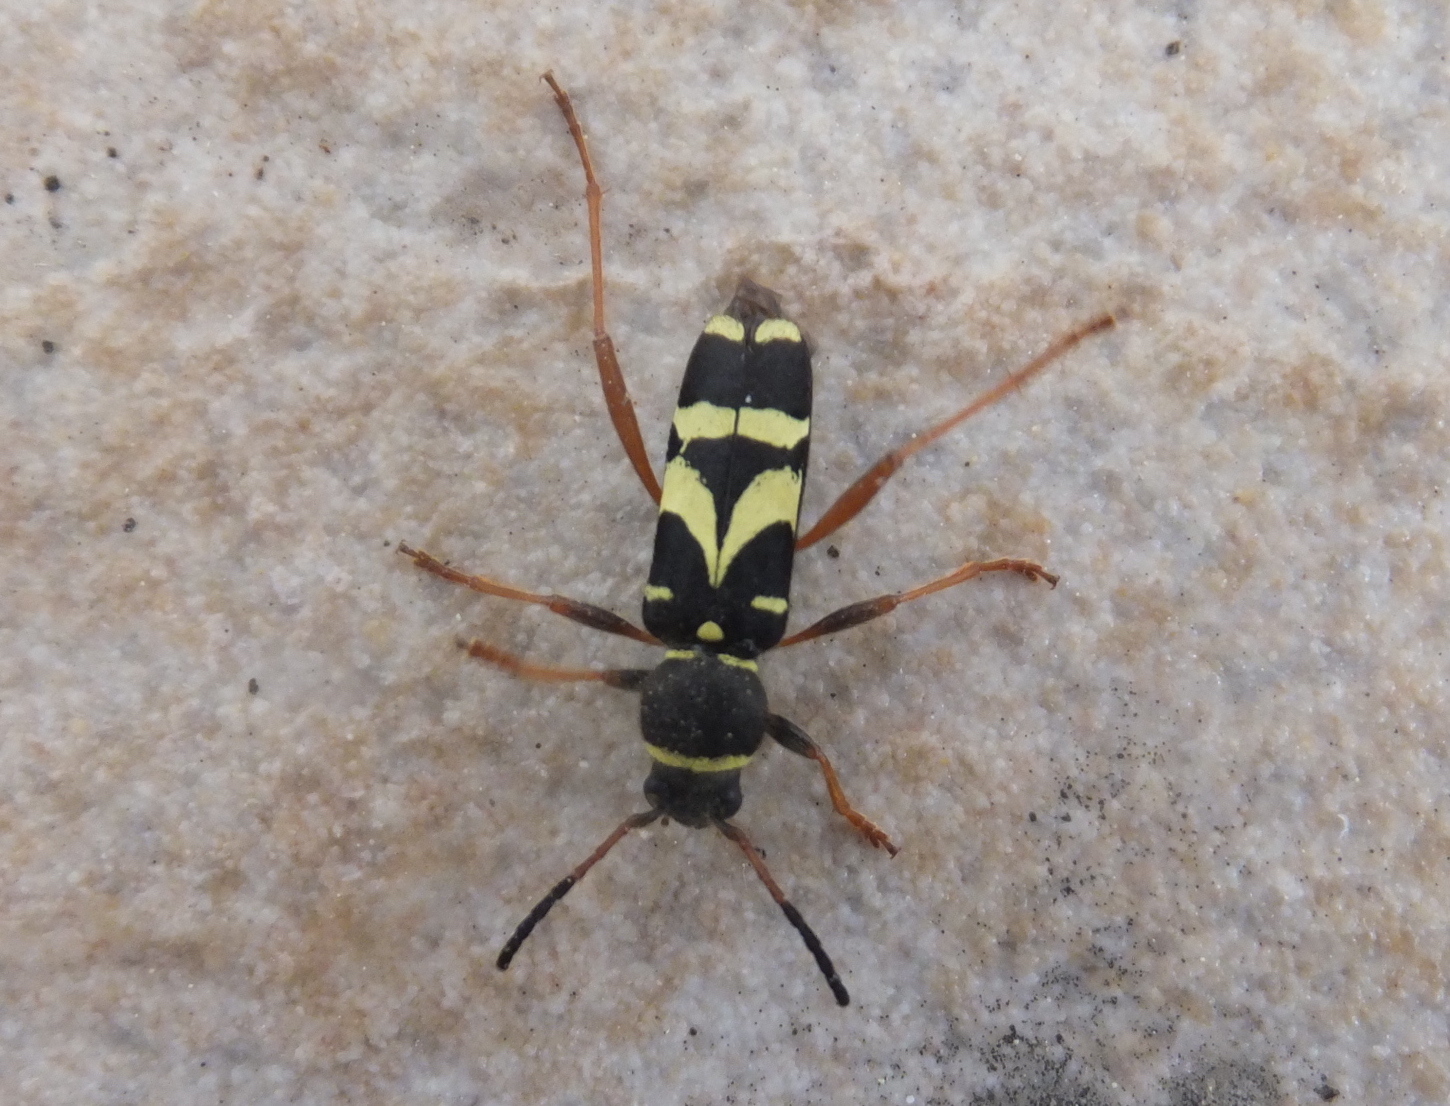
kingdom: Animalia
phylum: Arthropoda
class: Insecta
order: Coleoptera
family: Cerambycidae
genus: Clytus
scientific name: Clytus triangulimacula
